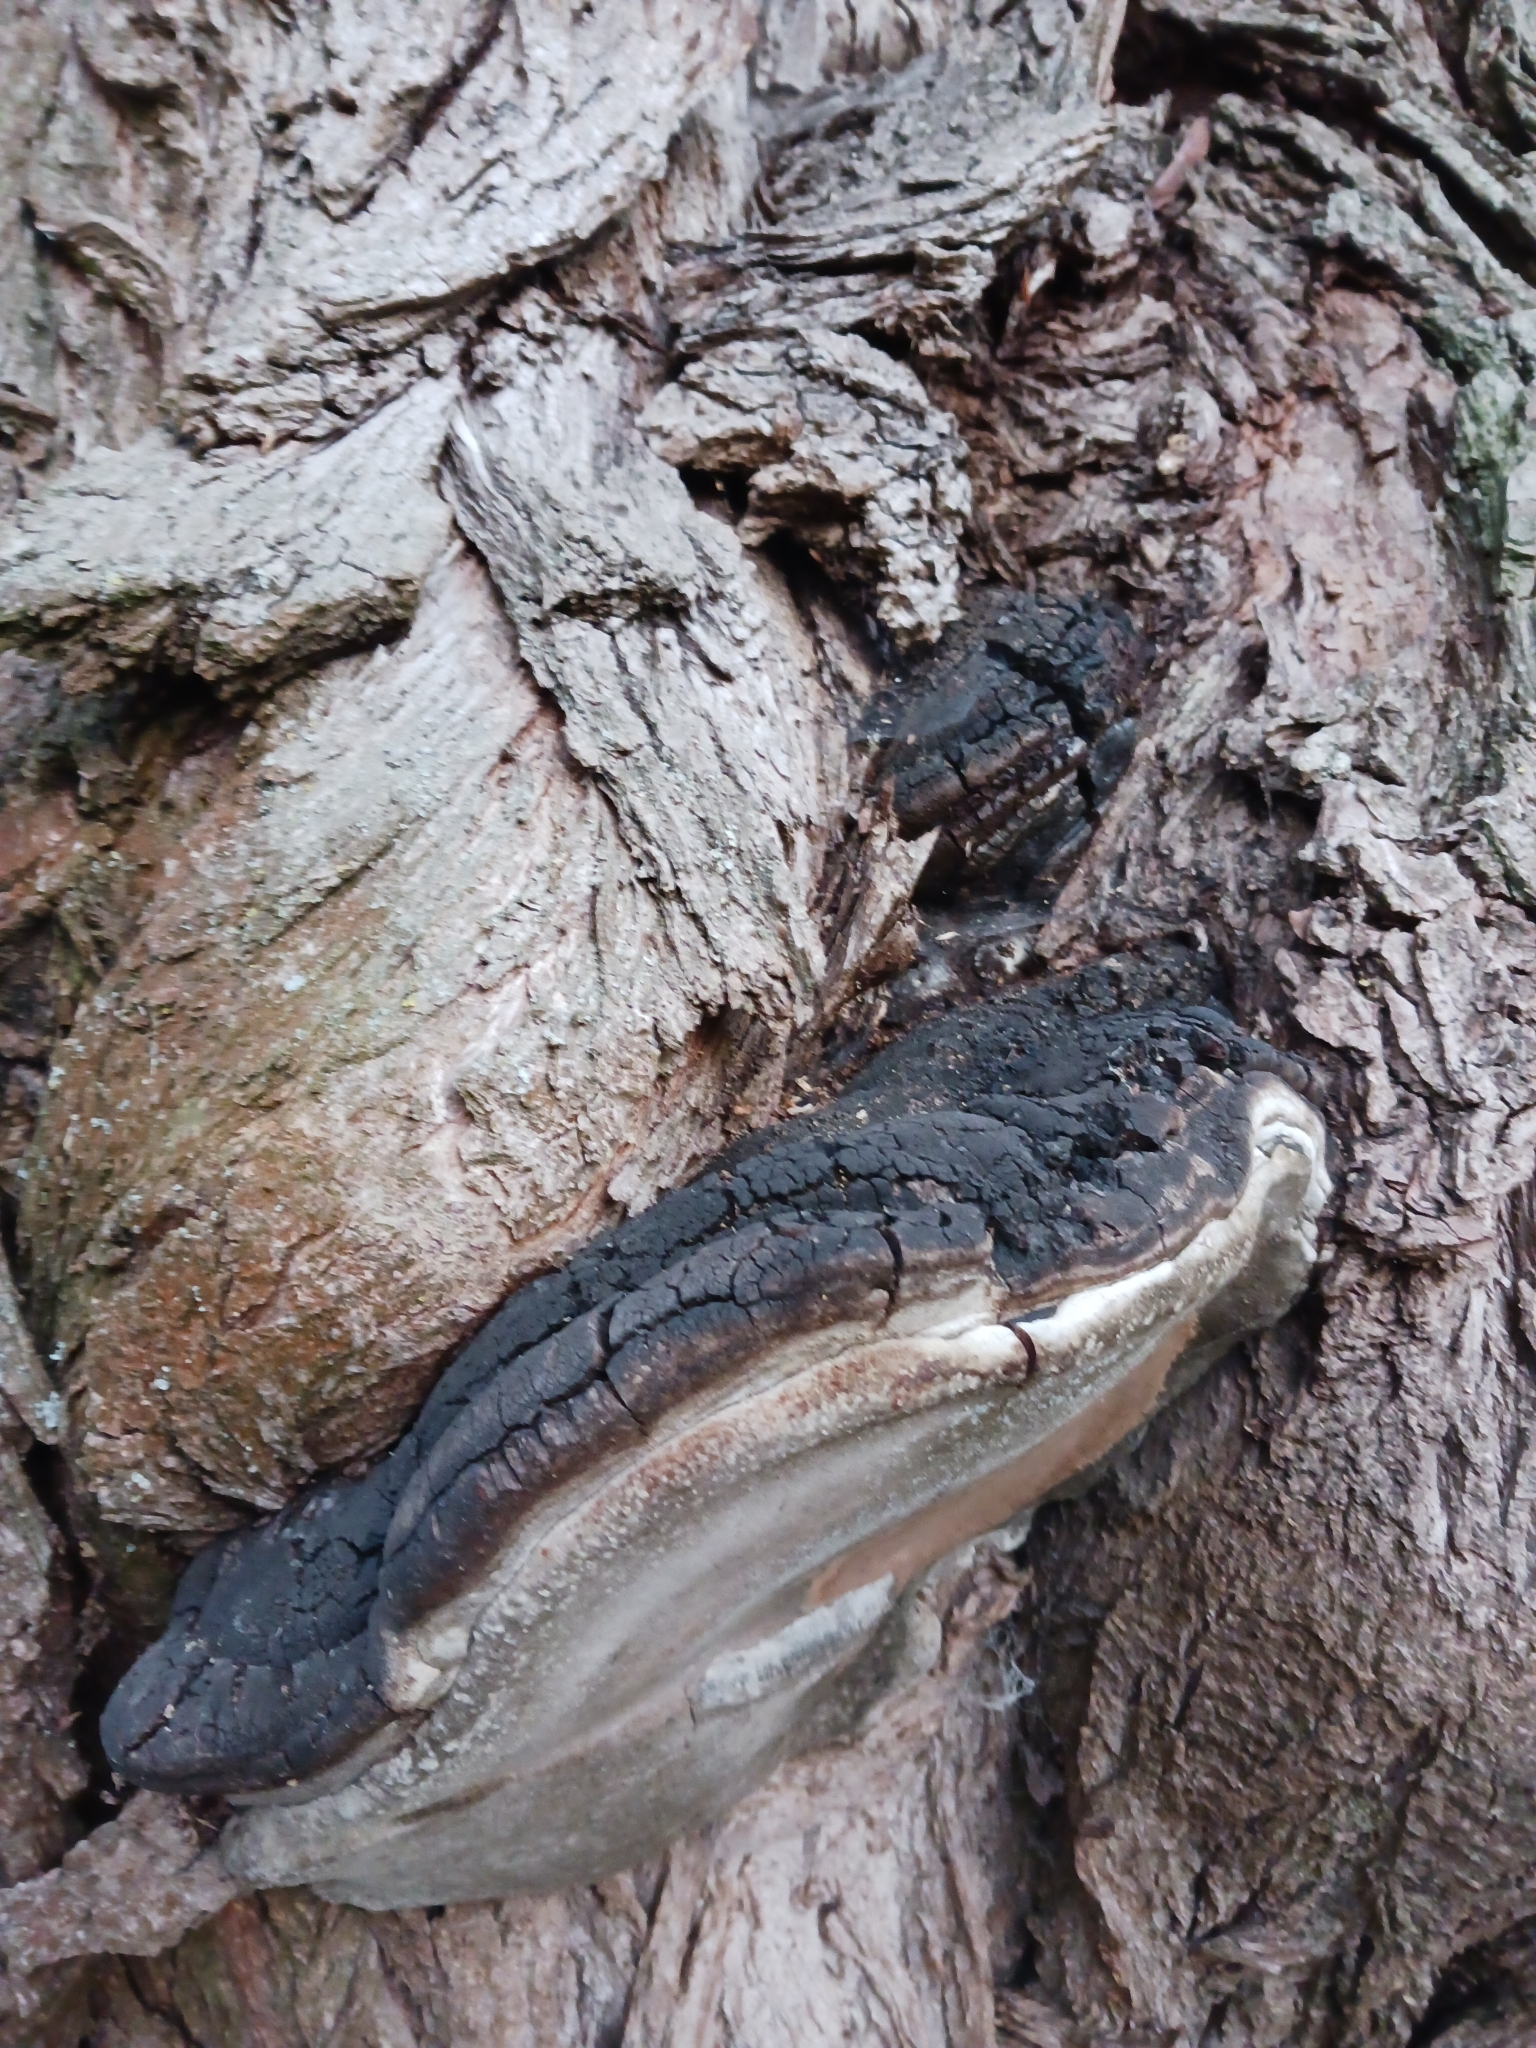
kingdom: Fungi
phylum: Basidiomycota
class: Agaricomycetes
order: Hymenochaetales
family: Hymenochaetaceae
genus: Phellinus
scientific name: Phellinus igniarius
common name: Willow bracket
